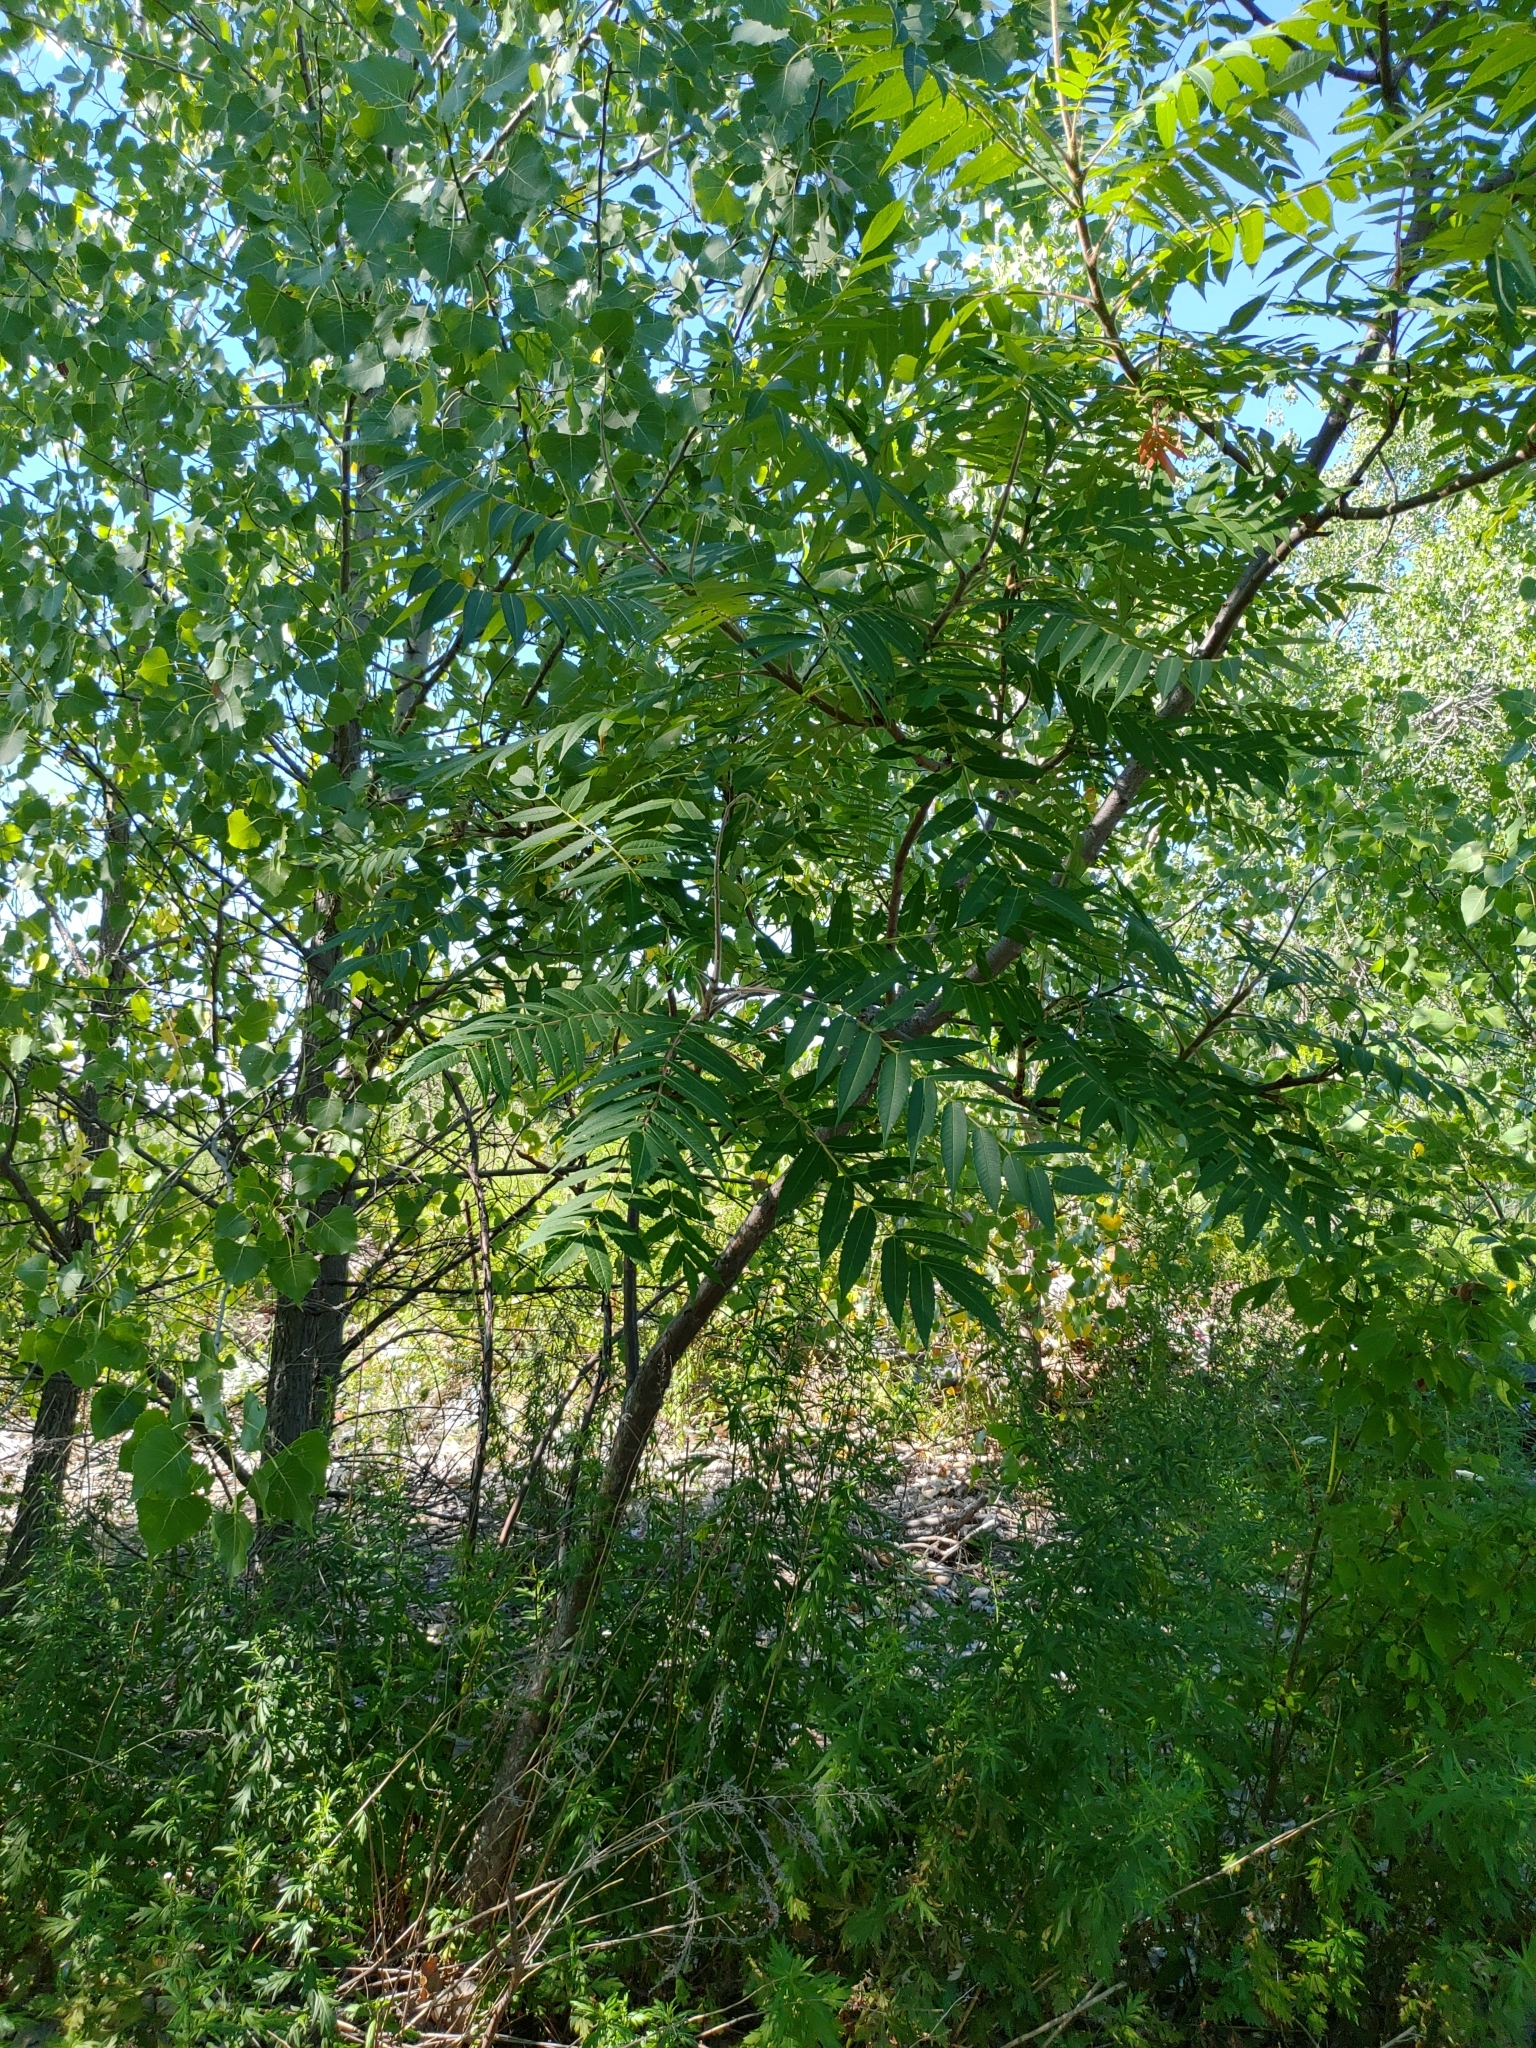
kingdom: Plantae
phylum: Tracheophyta
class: Magnoliopsida
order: Sapindales
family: Anacardiaceae
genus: Rhus
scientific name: Rhus typhina
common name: Staghorn sumac
